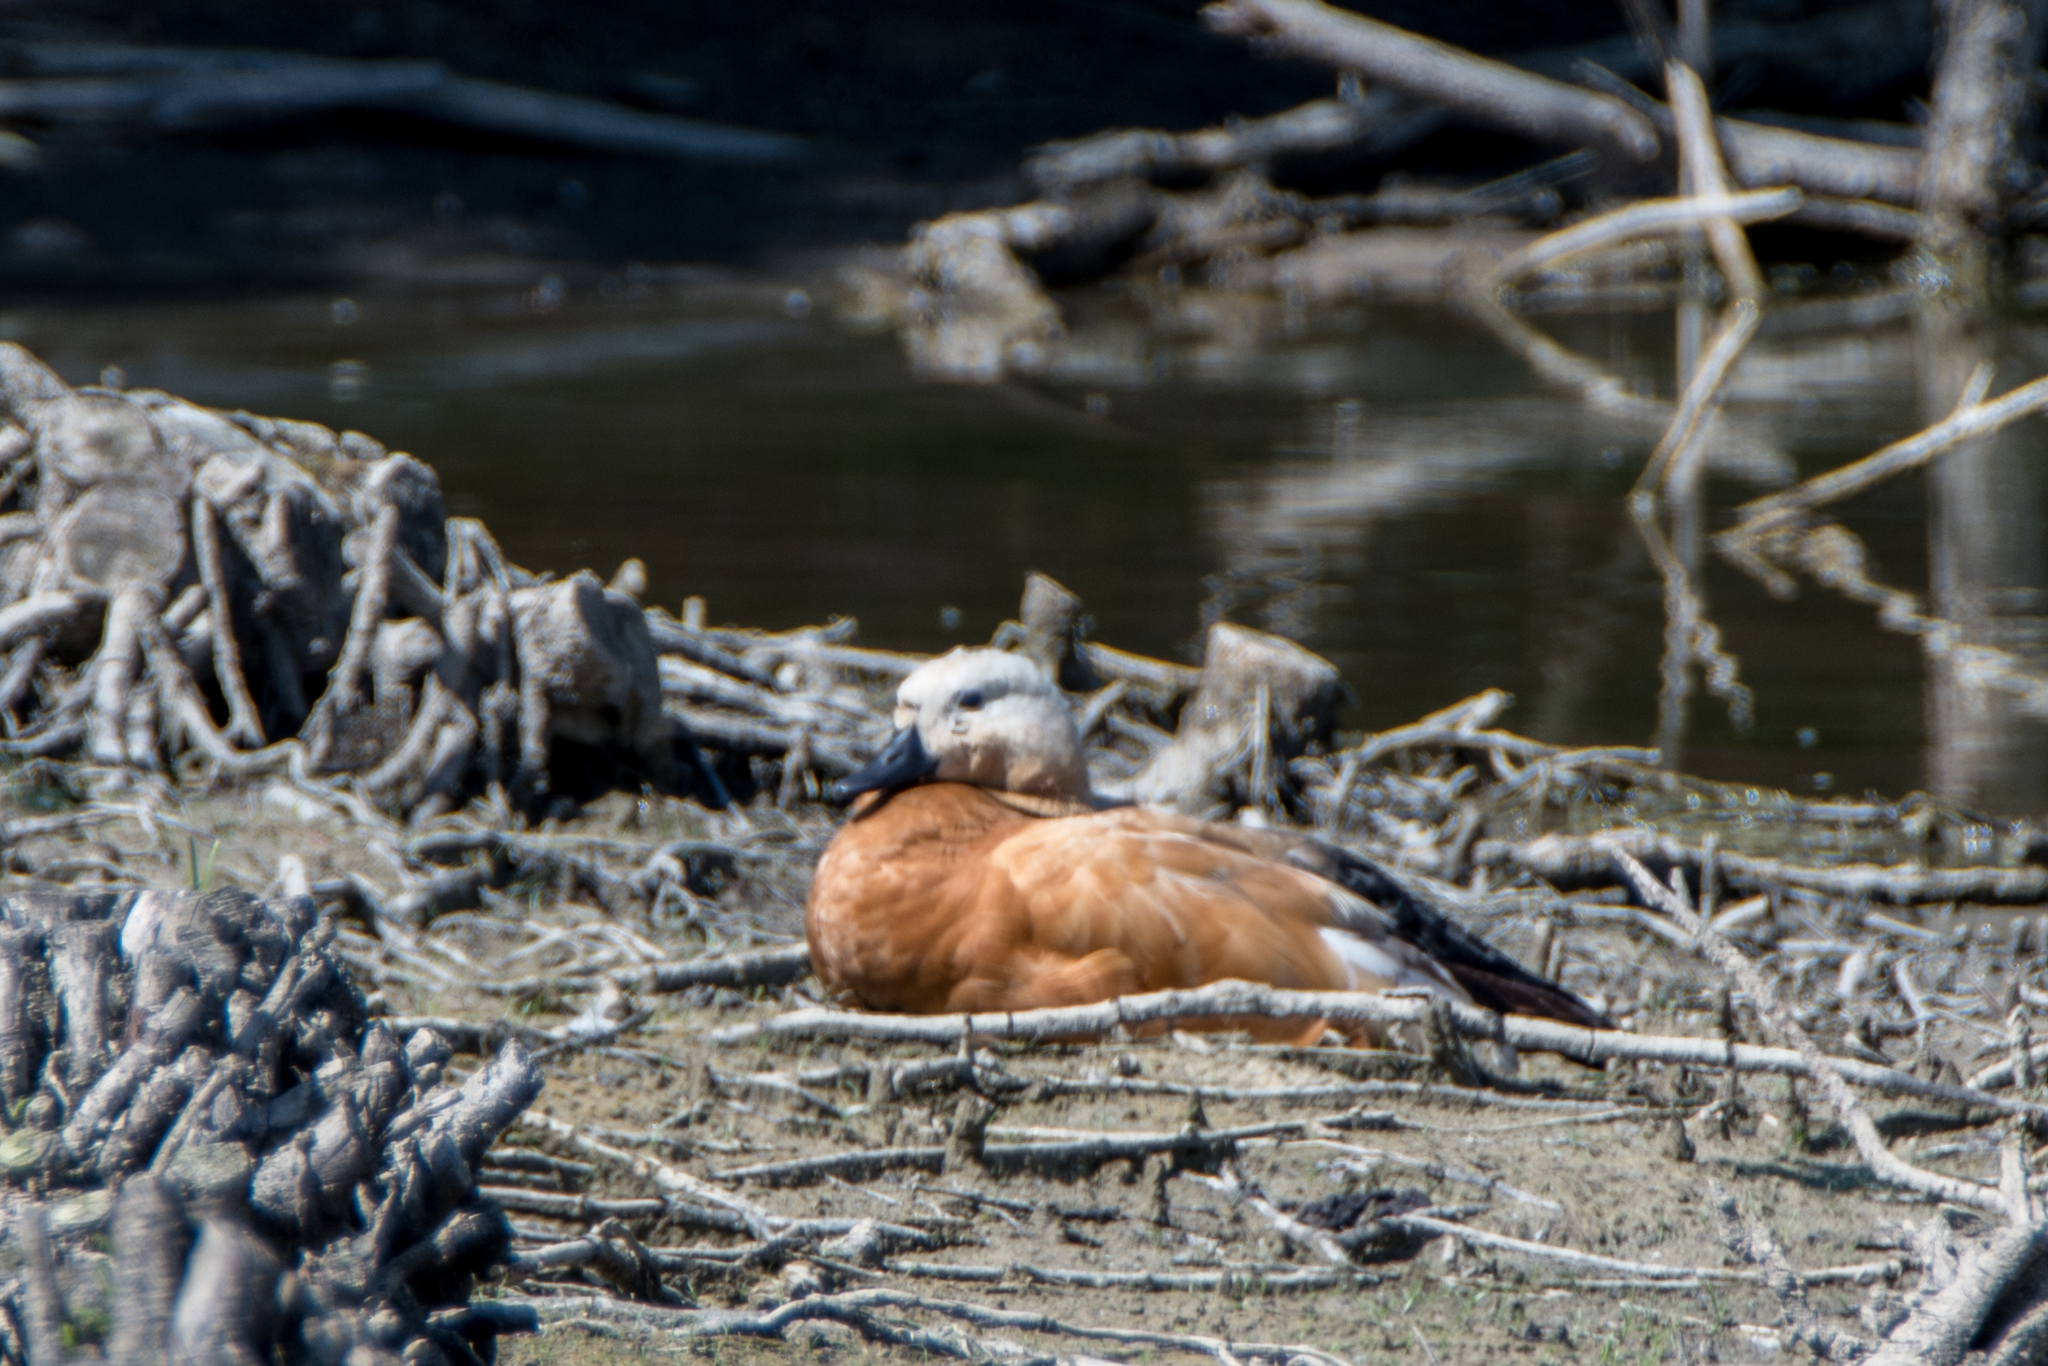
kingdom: Animalia
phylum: Chordata
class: Aves
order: Anseriformes
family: Anatidae
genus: Tadorna
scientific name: Tadorna ferruginea
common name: Ruddy shelduck
